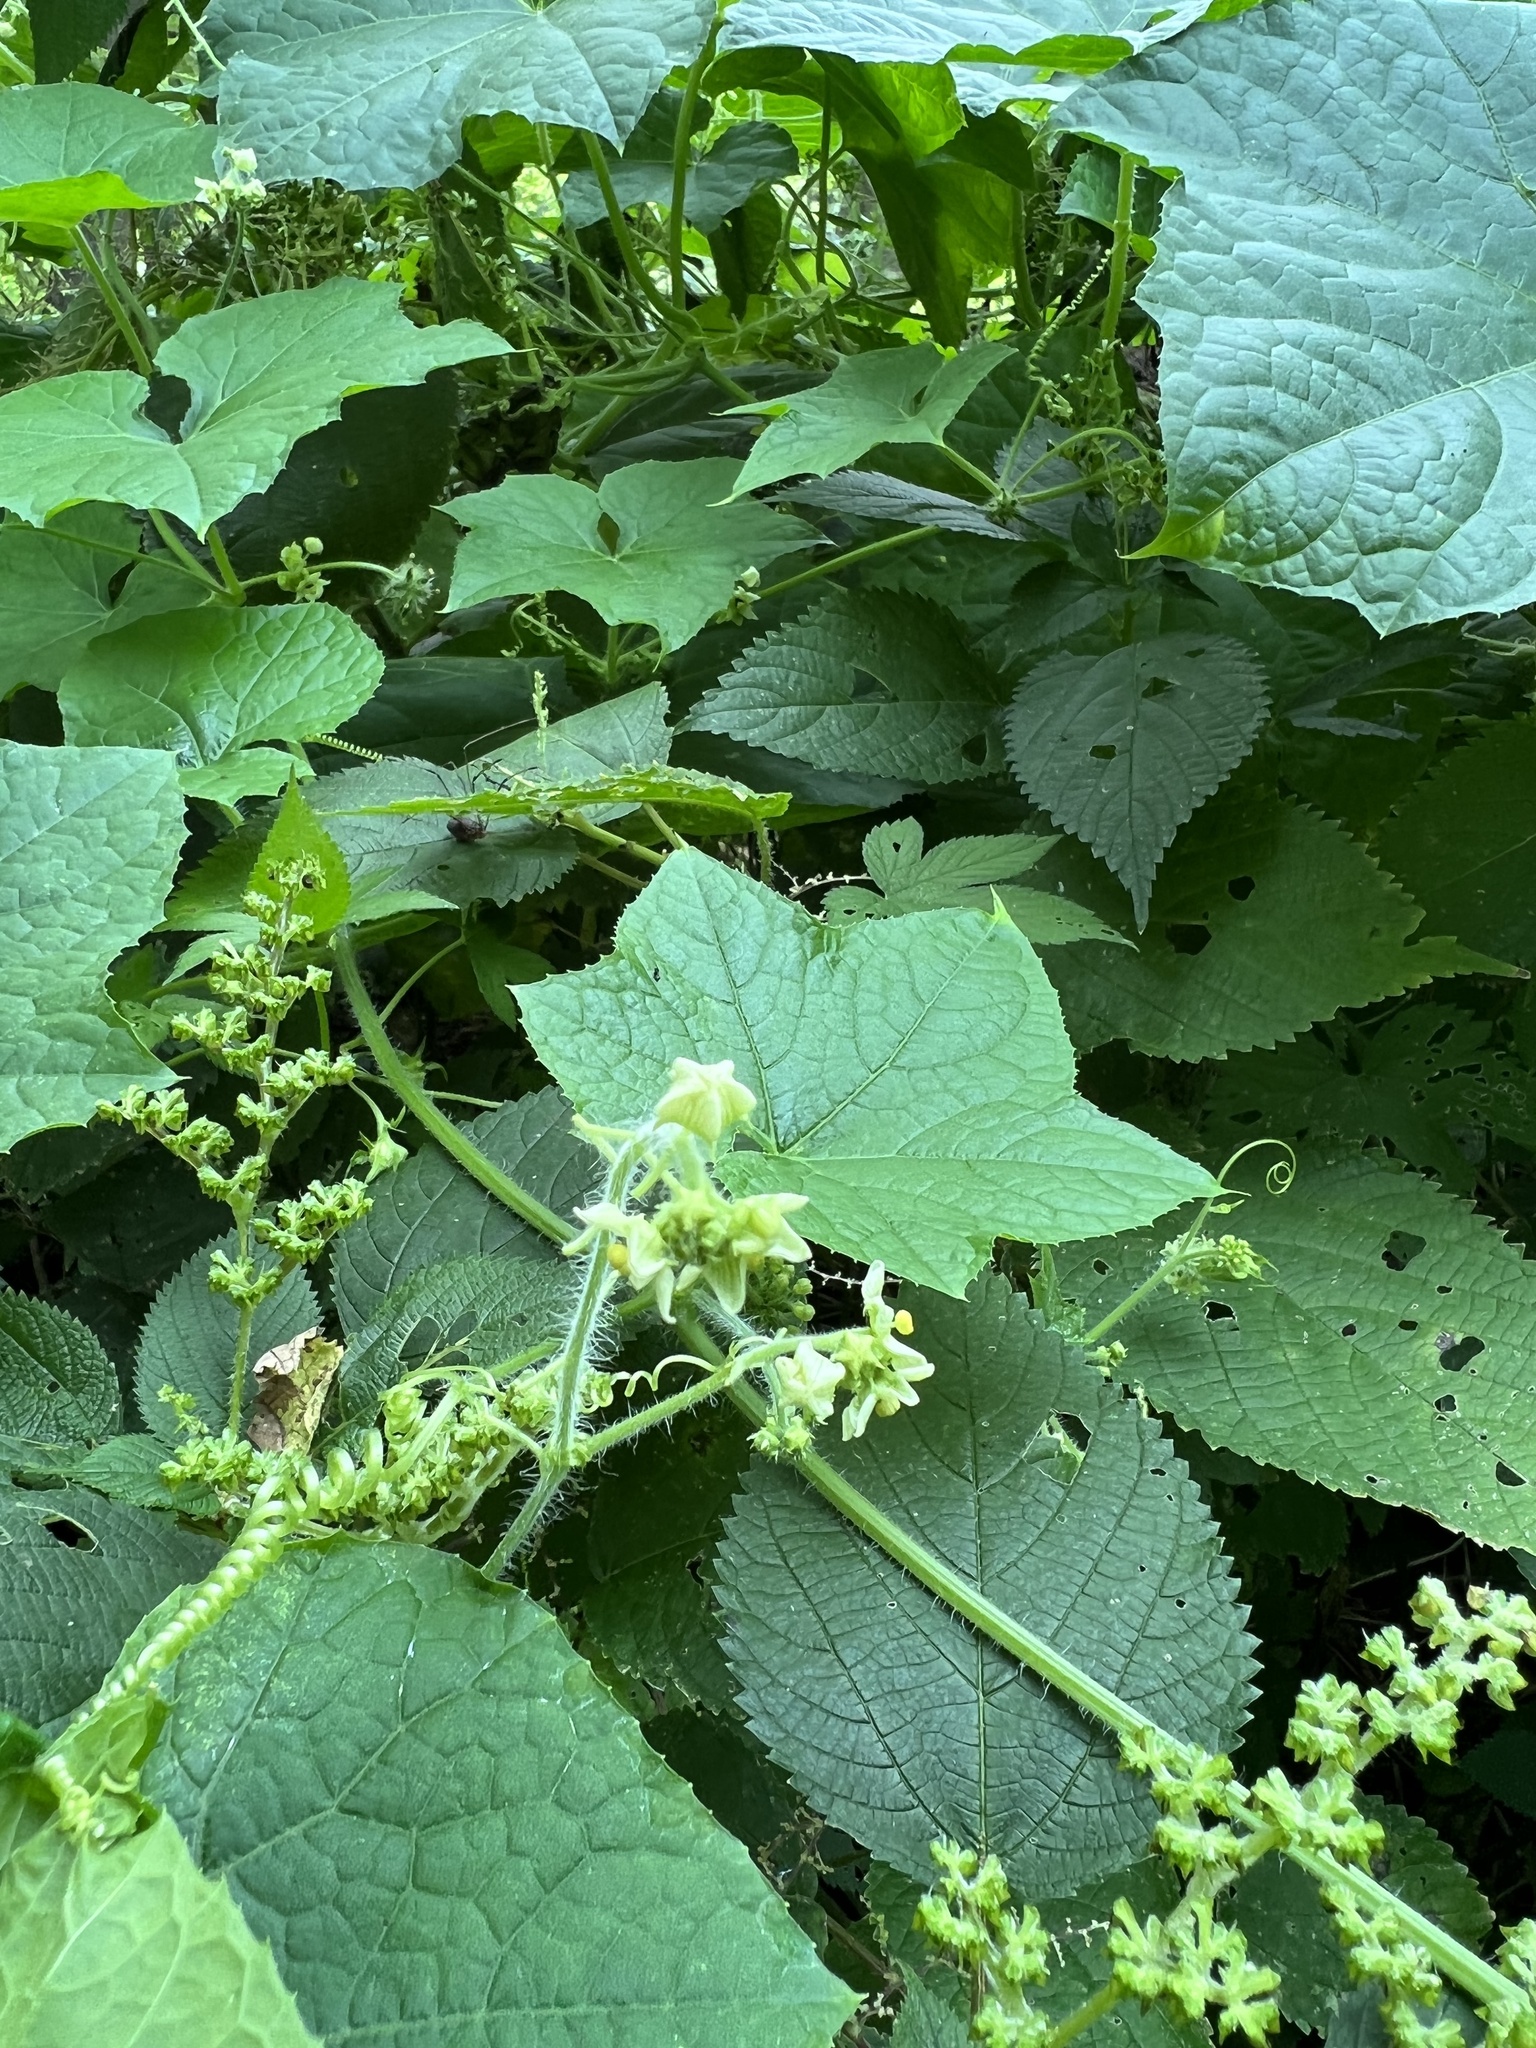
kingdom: Plantae
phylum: Tracheophyta
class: Magnoliopsida
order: Cucurbitales
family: Cucurbitaceae
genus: Sicyos
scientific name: Sicyos angulatus
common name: Angled burr cucumber
